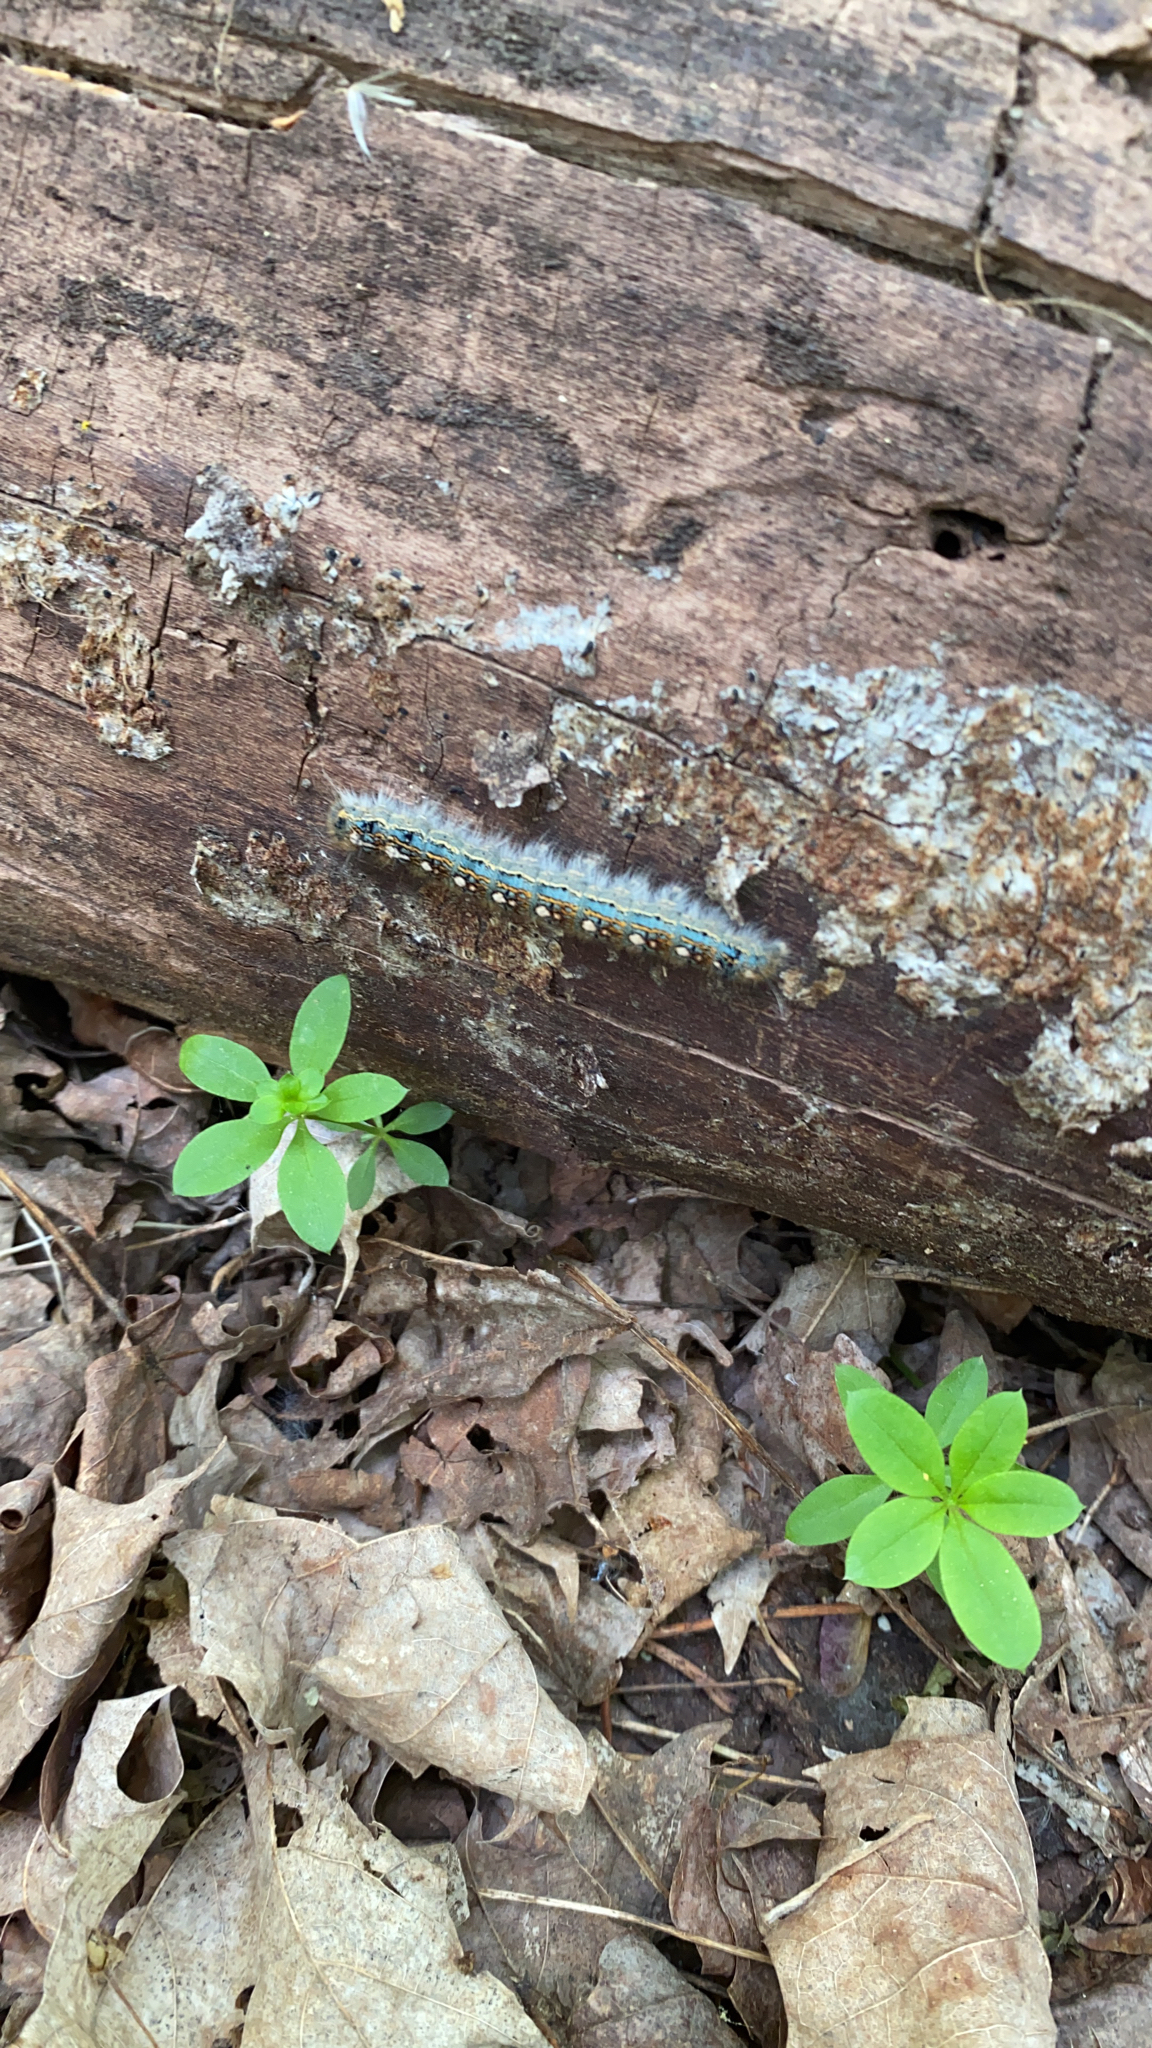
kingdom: Animalia
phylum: Arthropoda
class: Insecta
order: Lepidoptera
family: Lasiocampidae
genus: Malacosoma
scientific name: Malacosoma disstria
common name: Forest tent caterpillar
